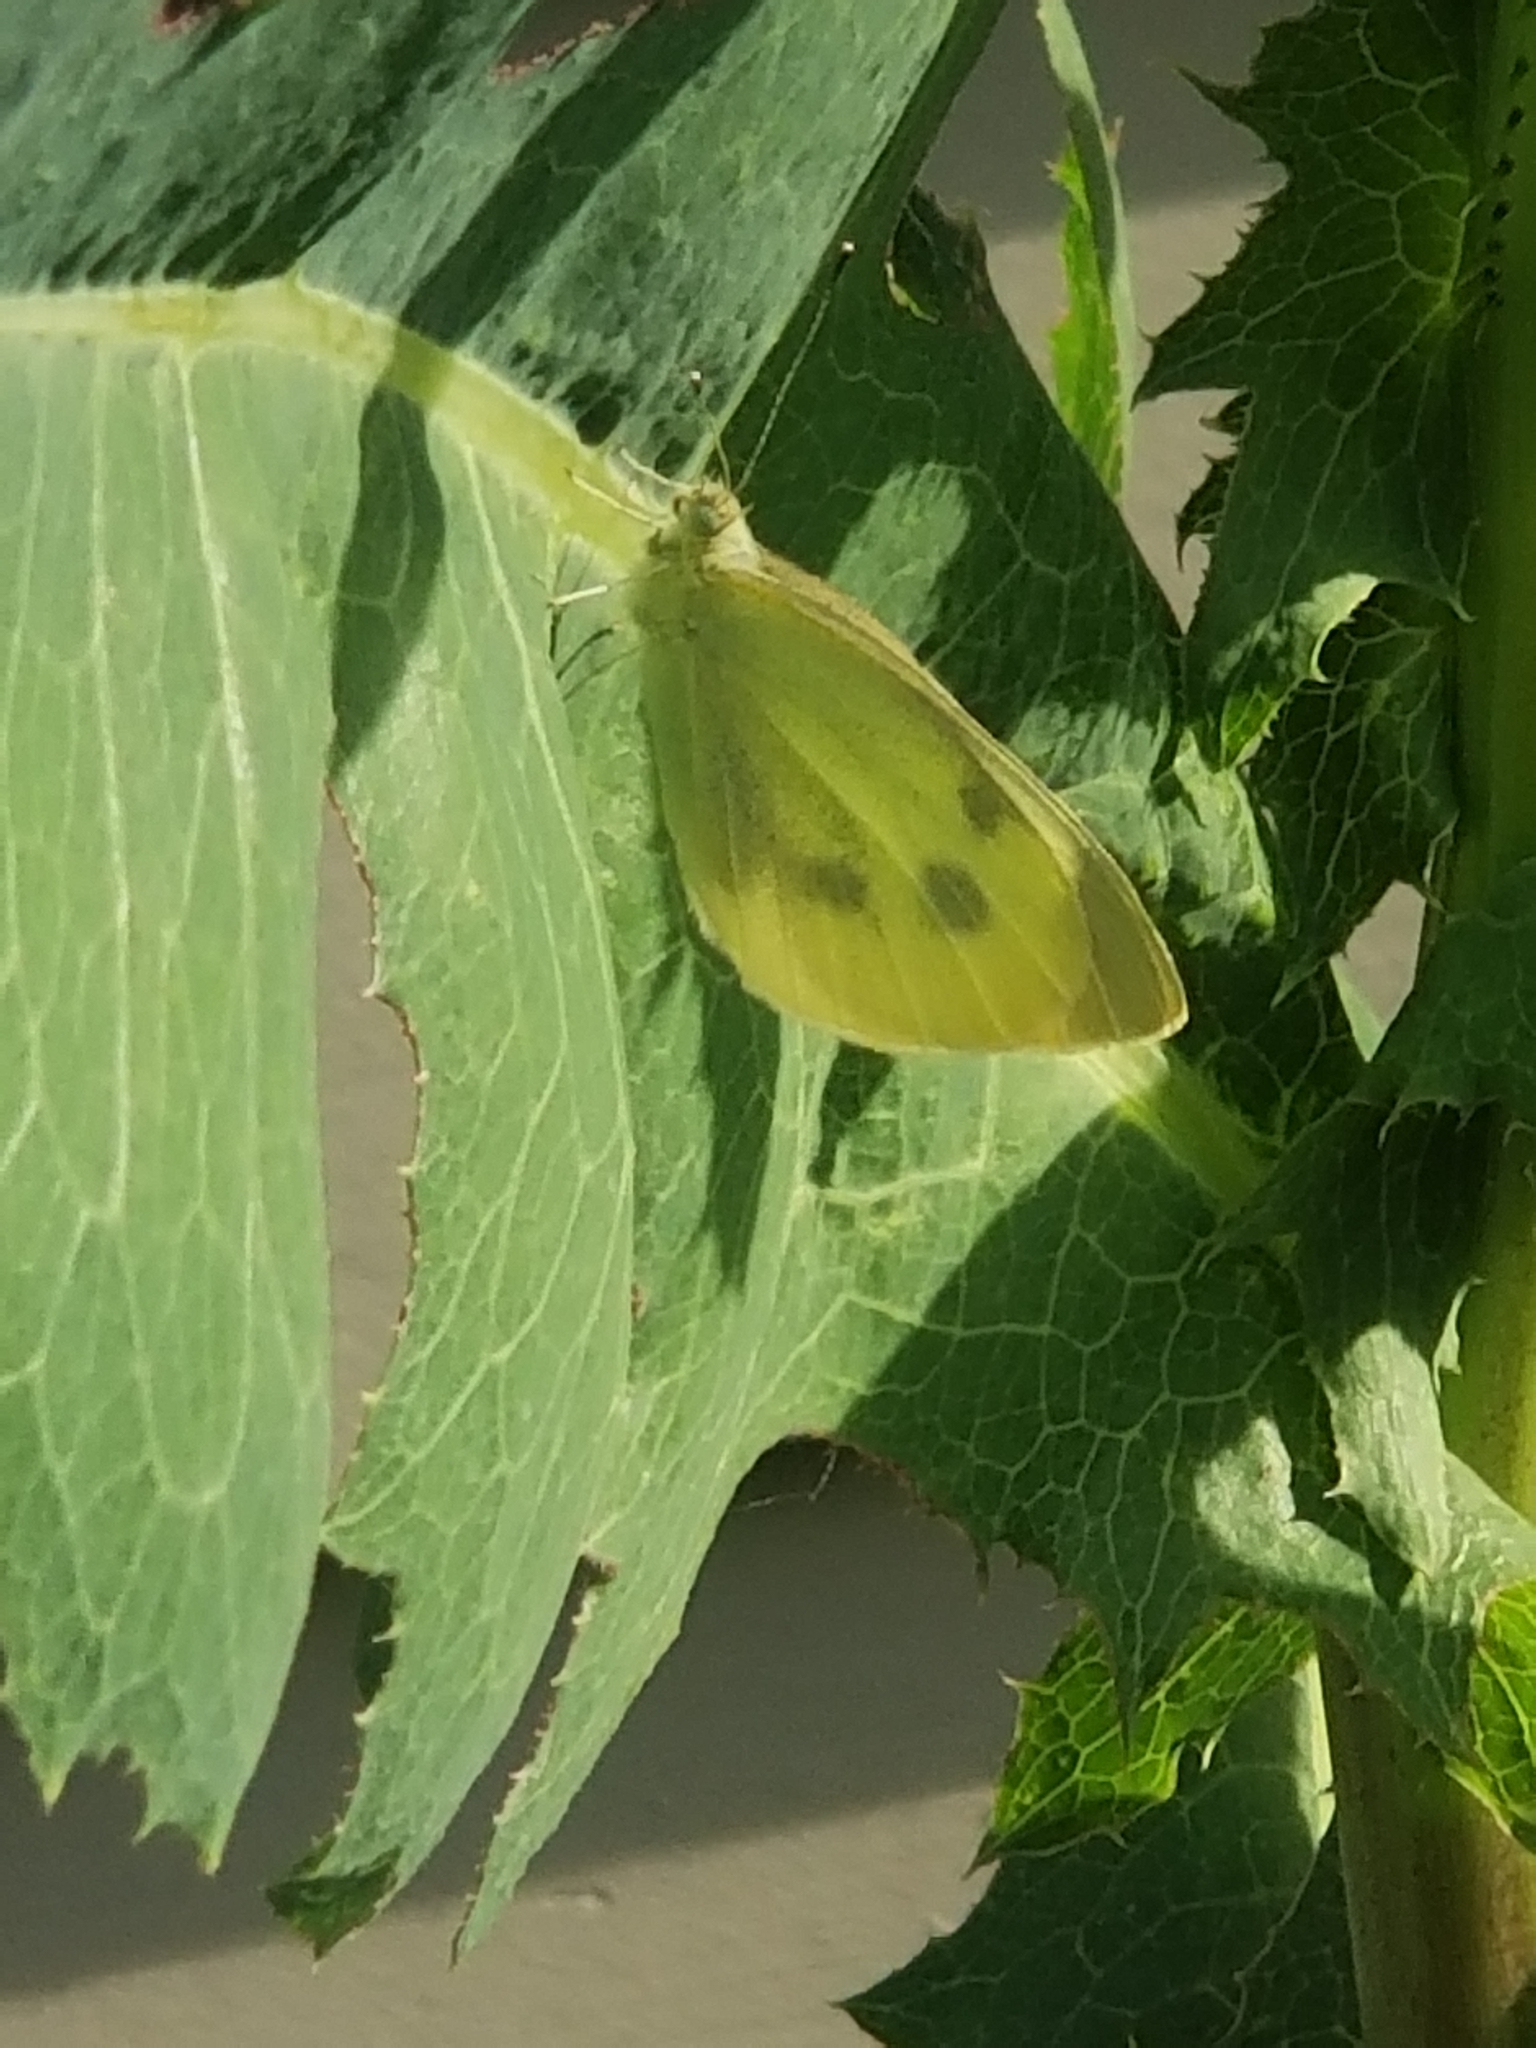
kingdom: Animalia
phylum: Arthropoda
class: Insecta
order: Lepidoptera
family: Pieridae
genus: Pieris
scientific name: Pieris rapae
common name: Small white
